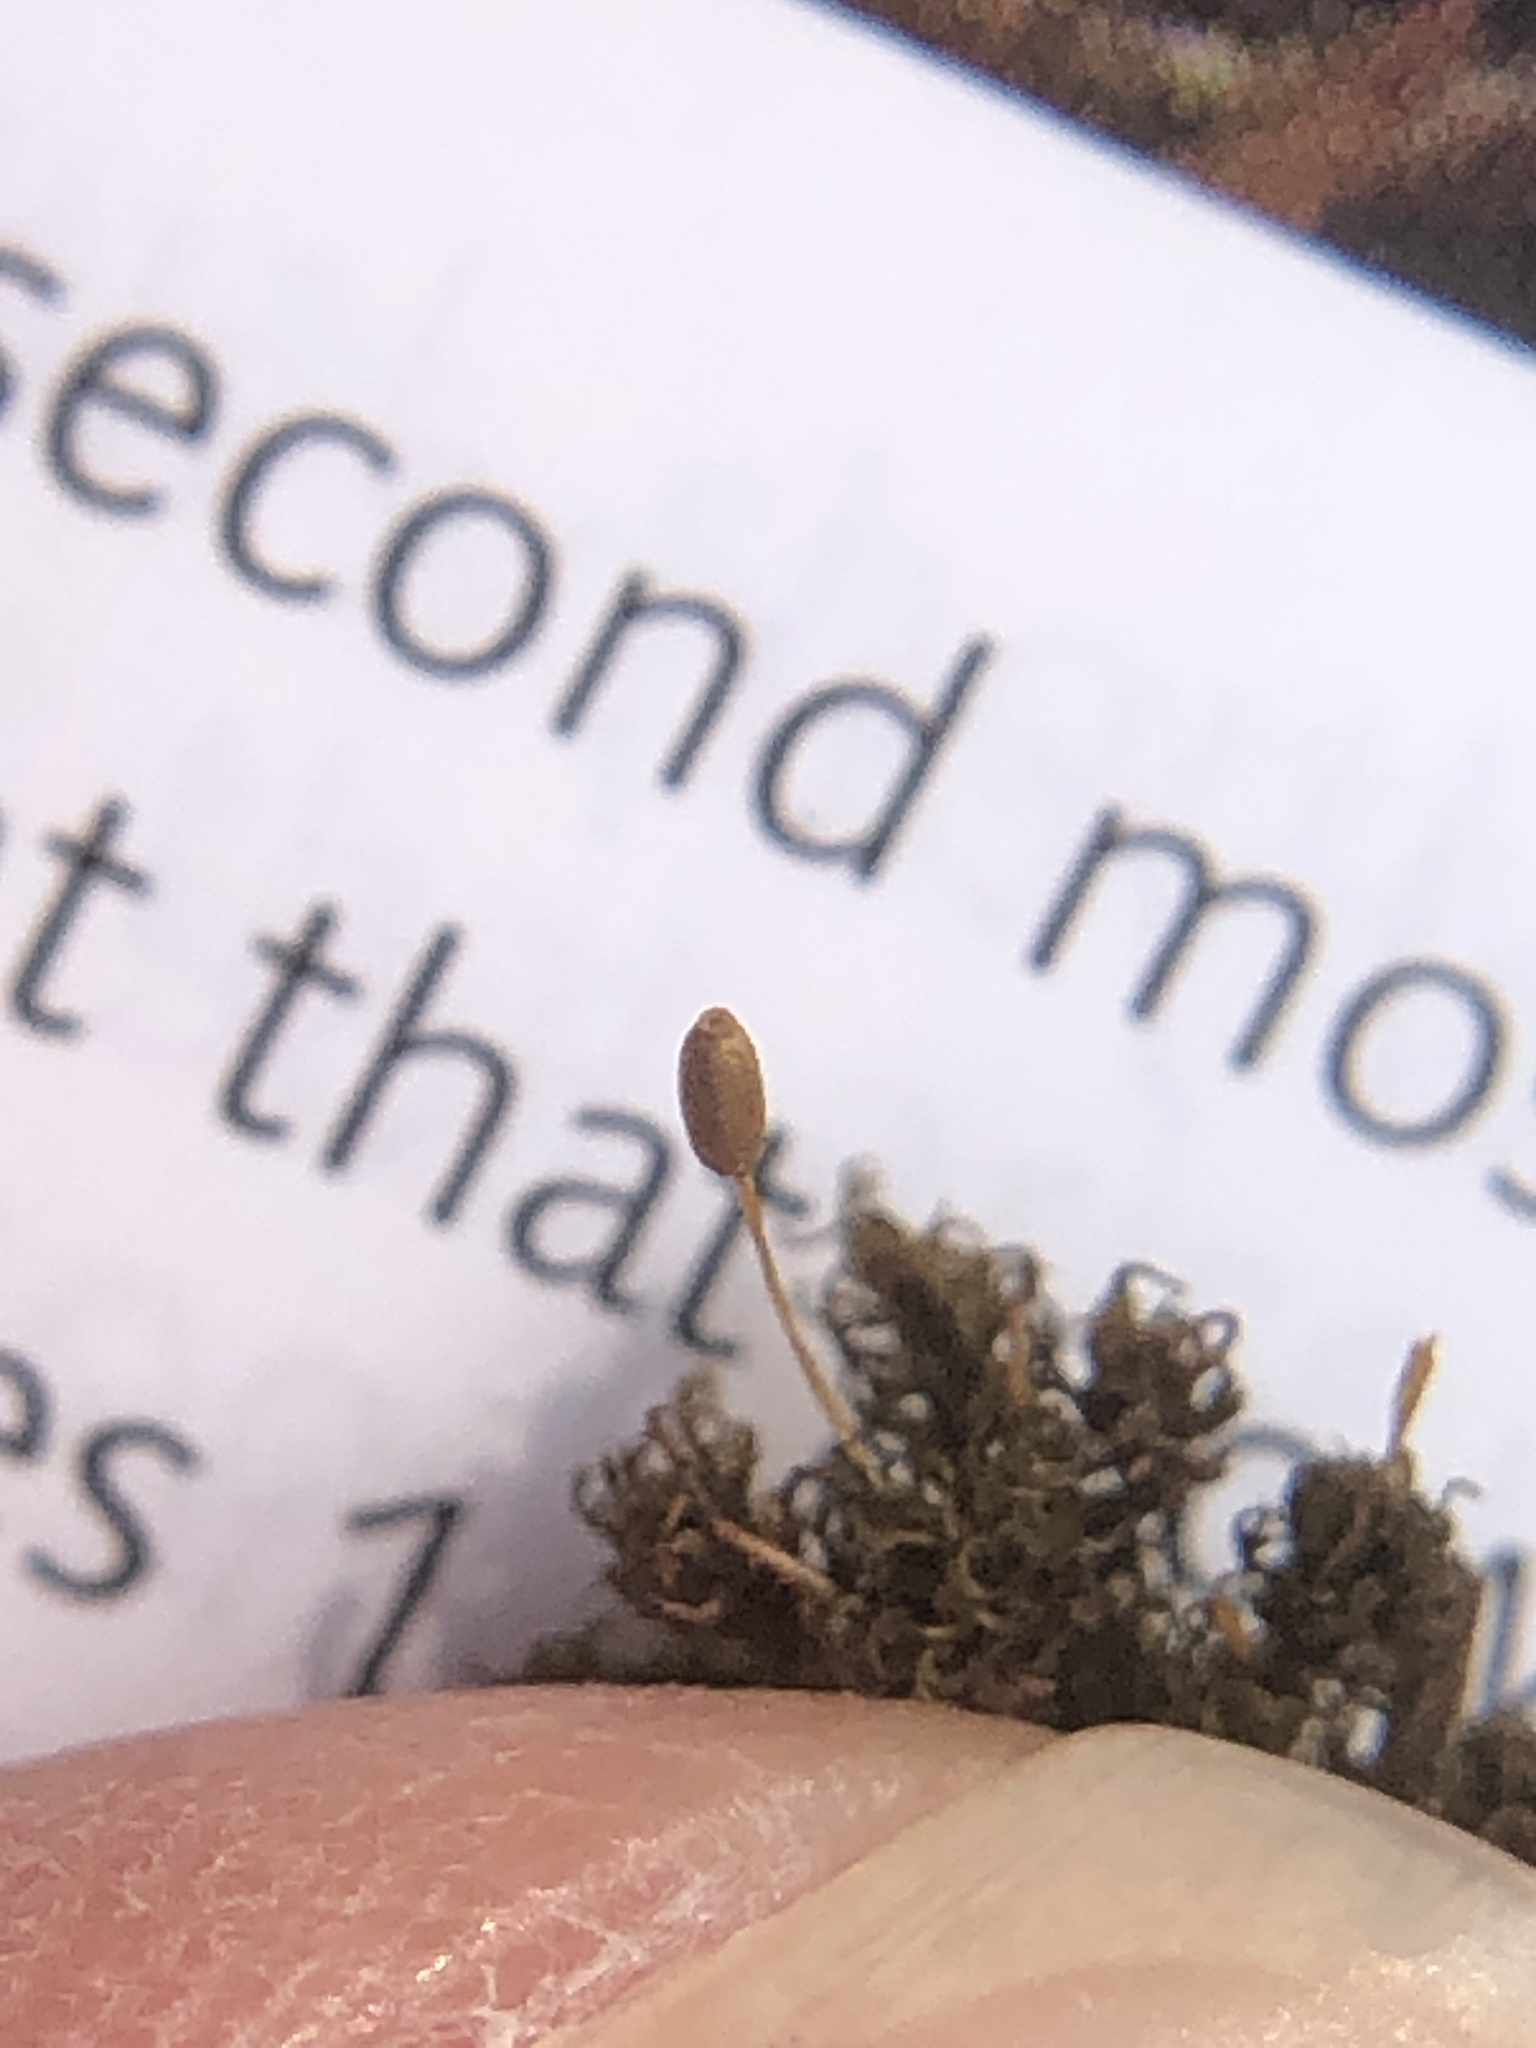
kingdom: Plantae
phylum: Bryophyta
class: Bryopsida
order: Pottiales
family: Pottiaceae
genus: Weissia
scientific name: Weissia brachycarpa
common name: Small-mouthed beardless-moss
